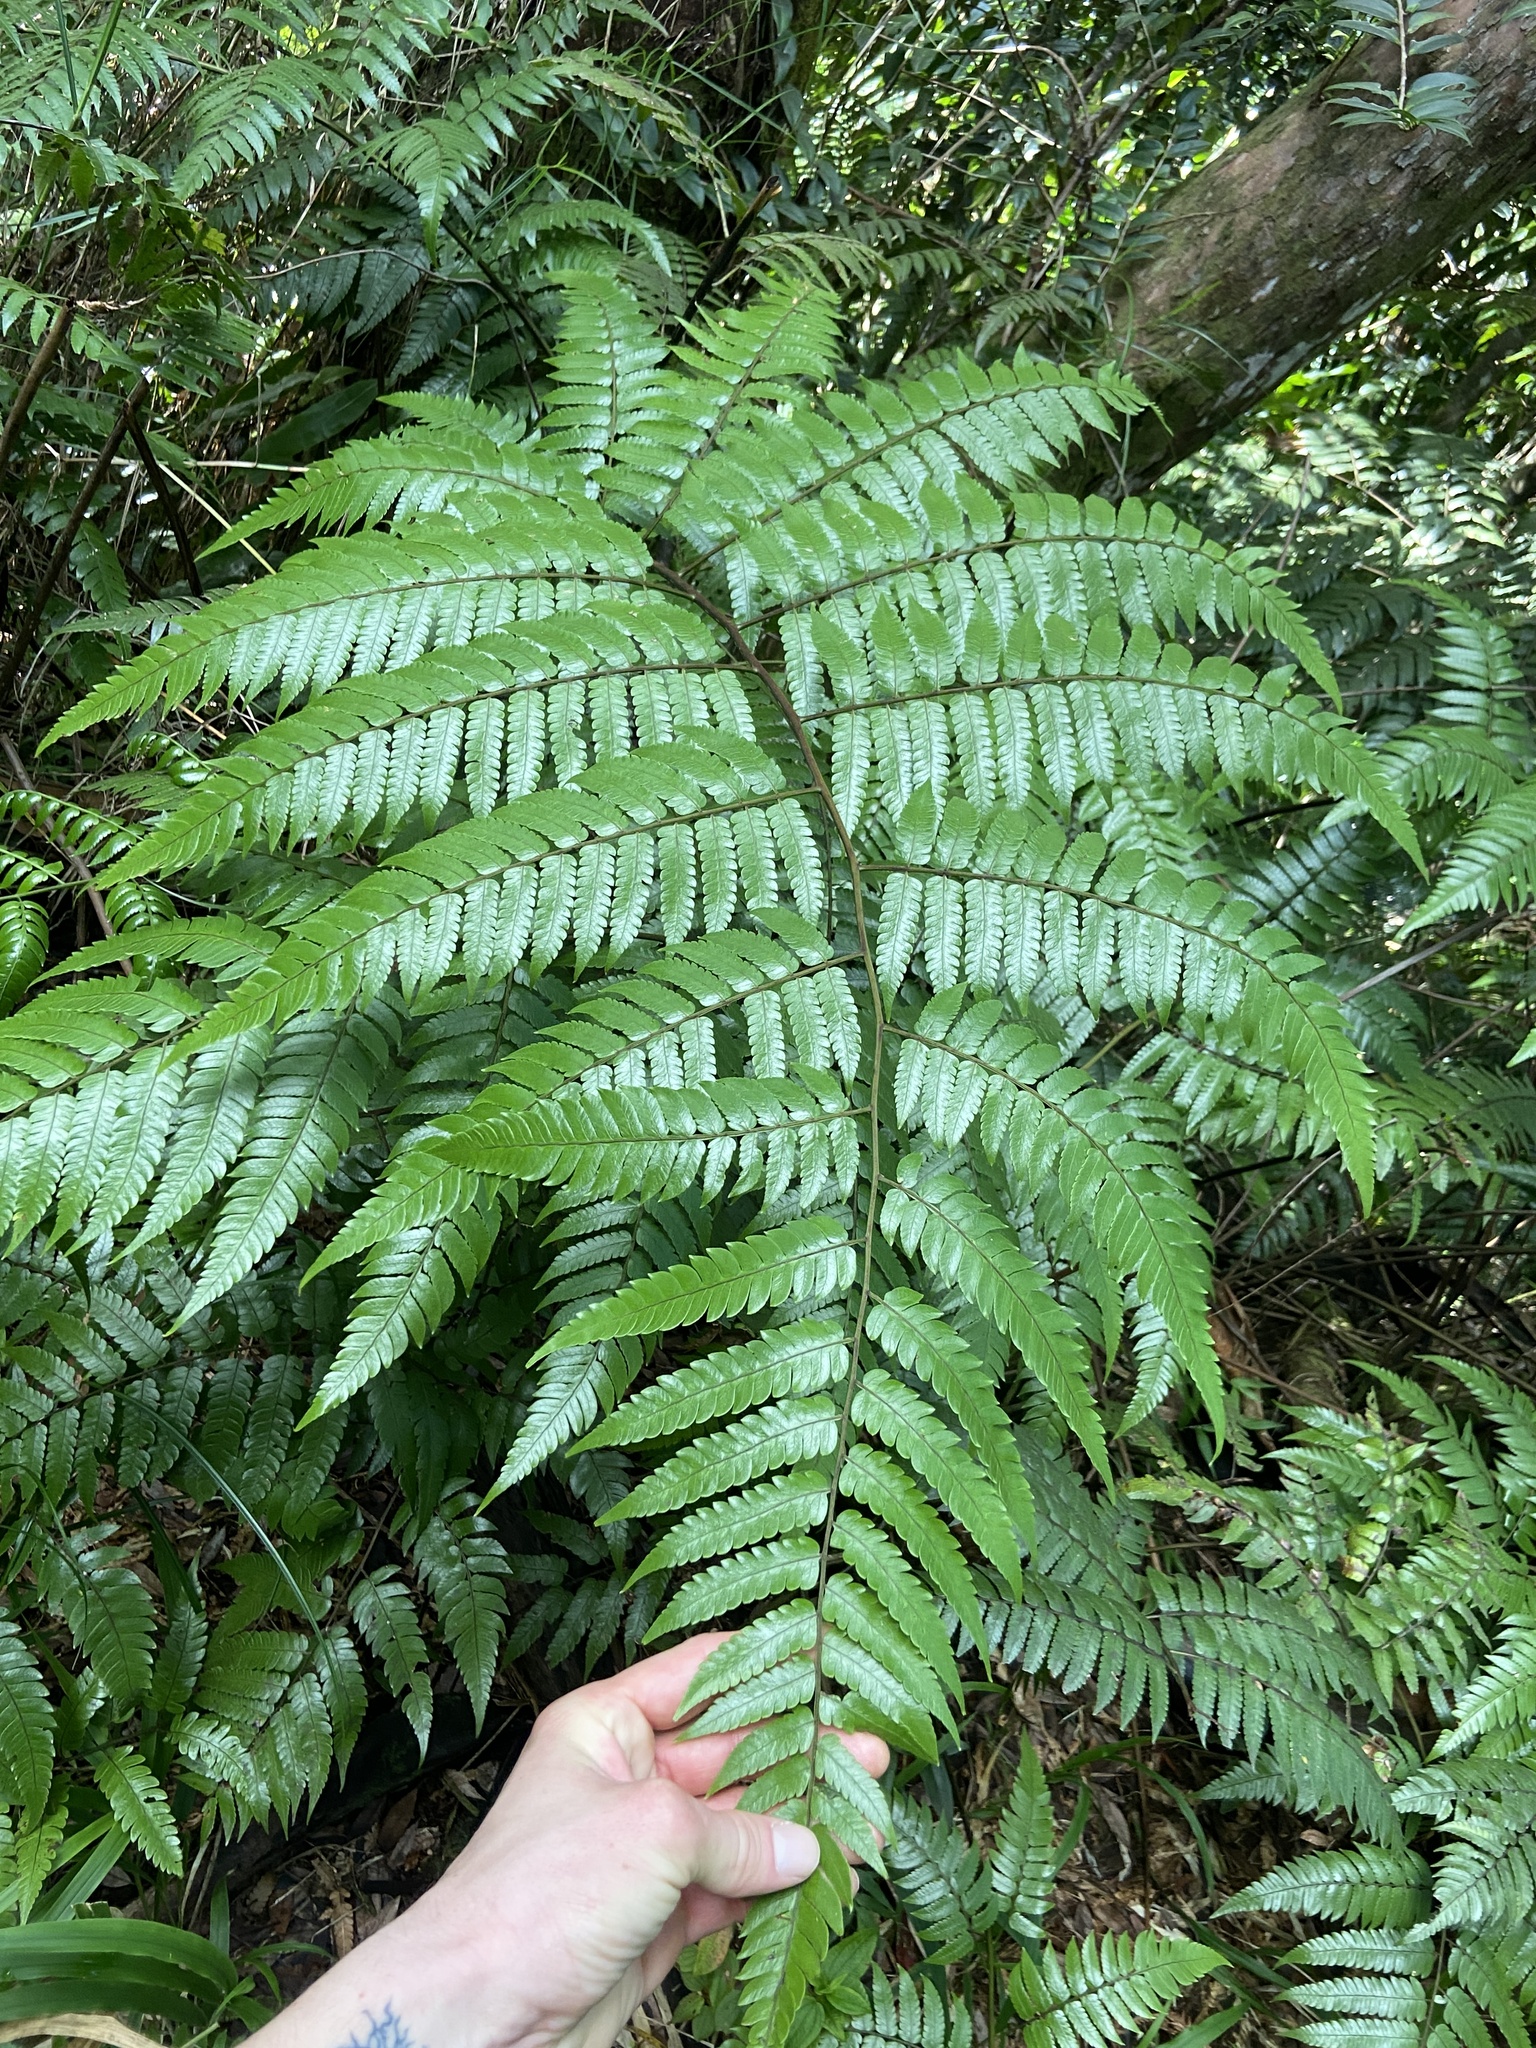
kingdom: Plantae
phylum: Tracheophyta
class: Polypodiopsida
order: Cyatheales
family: Cyatheaceae
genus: Cyathea
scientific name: Cyathea borinquena
